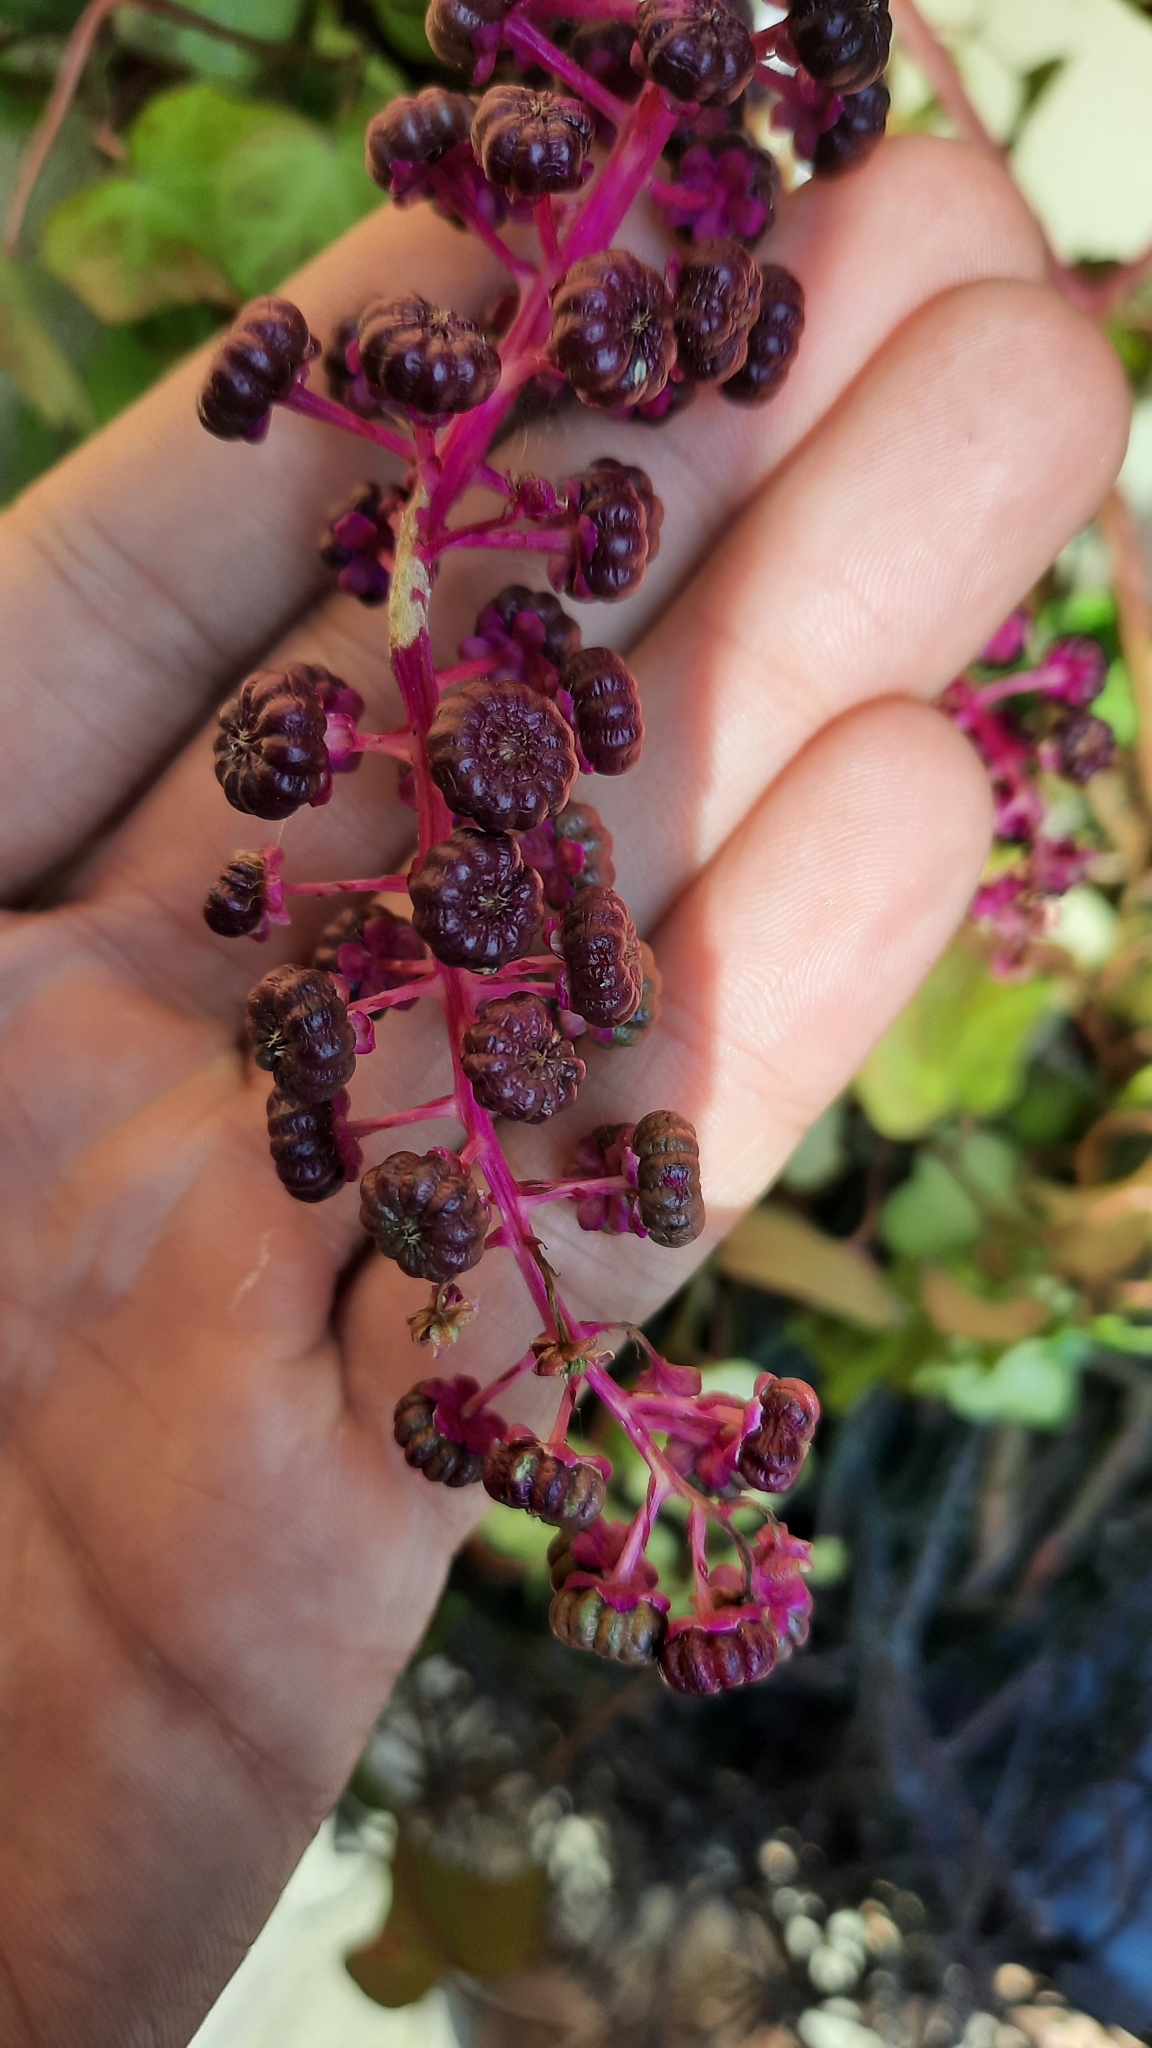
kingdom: Plantae
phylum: Tracheophyta
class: Magnoliopsida
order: Caryophyllales
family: Phytolaccaceae
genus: Phytolacca
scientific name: Phytolacca americana
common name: American pokeweed
